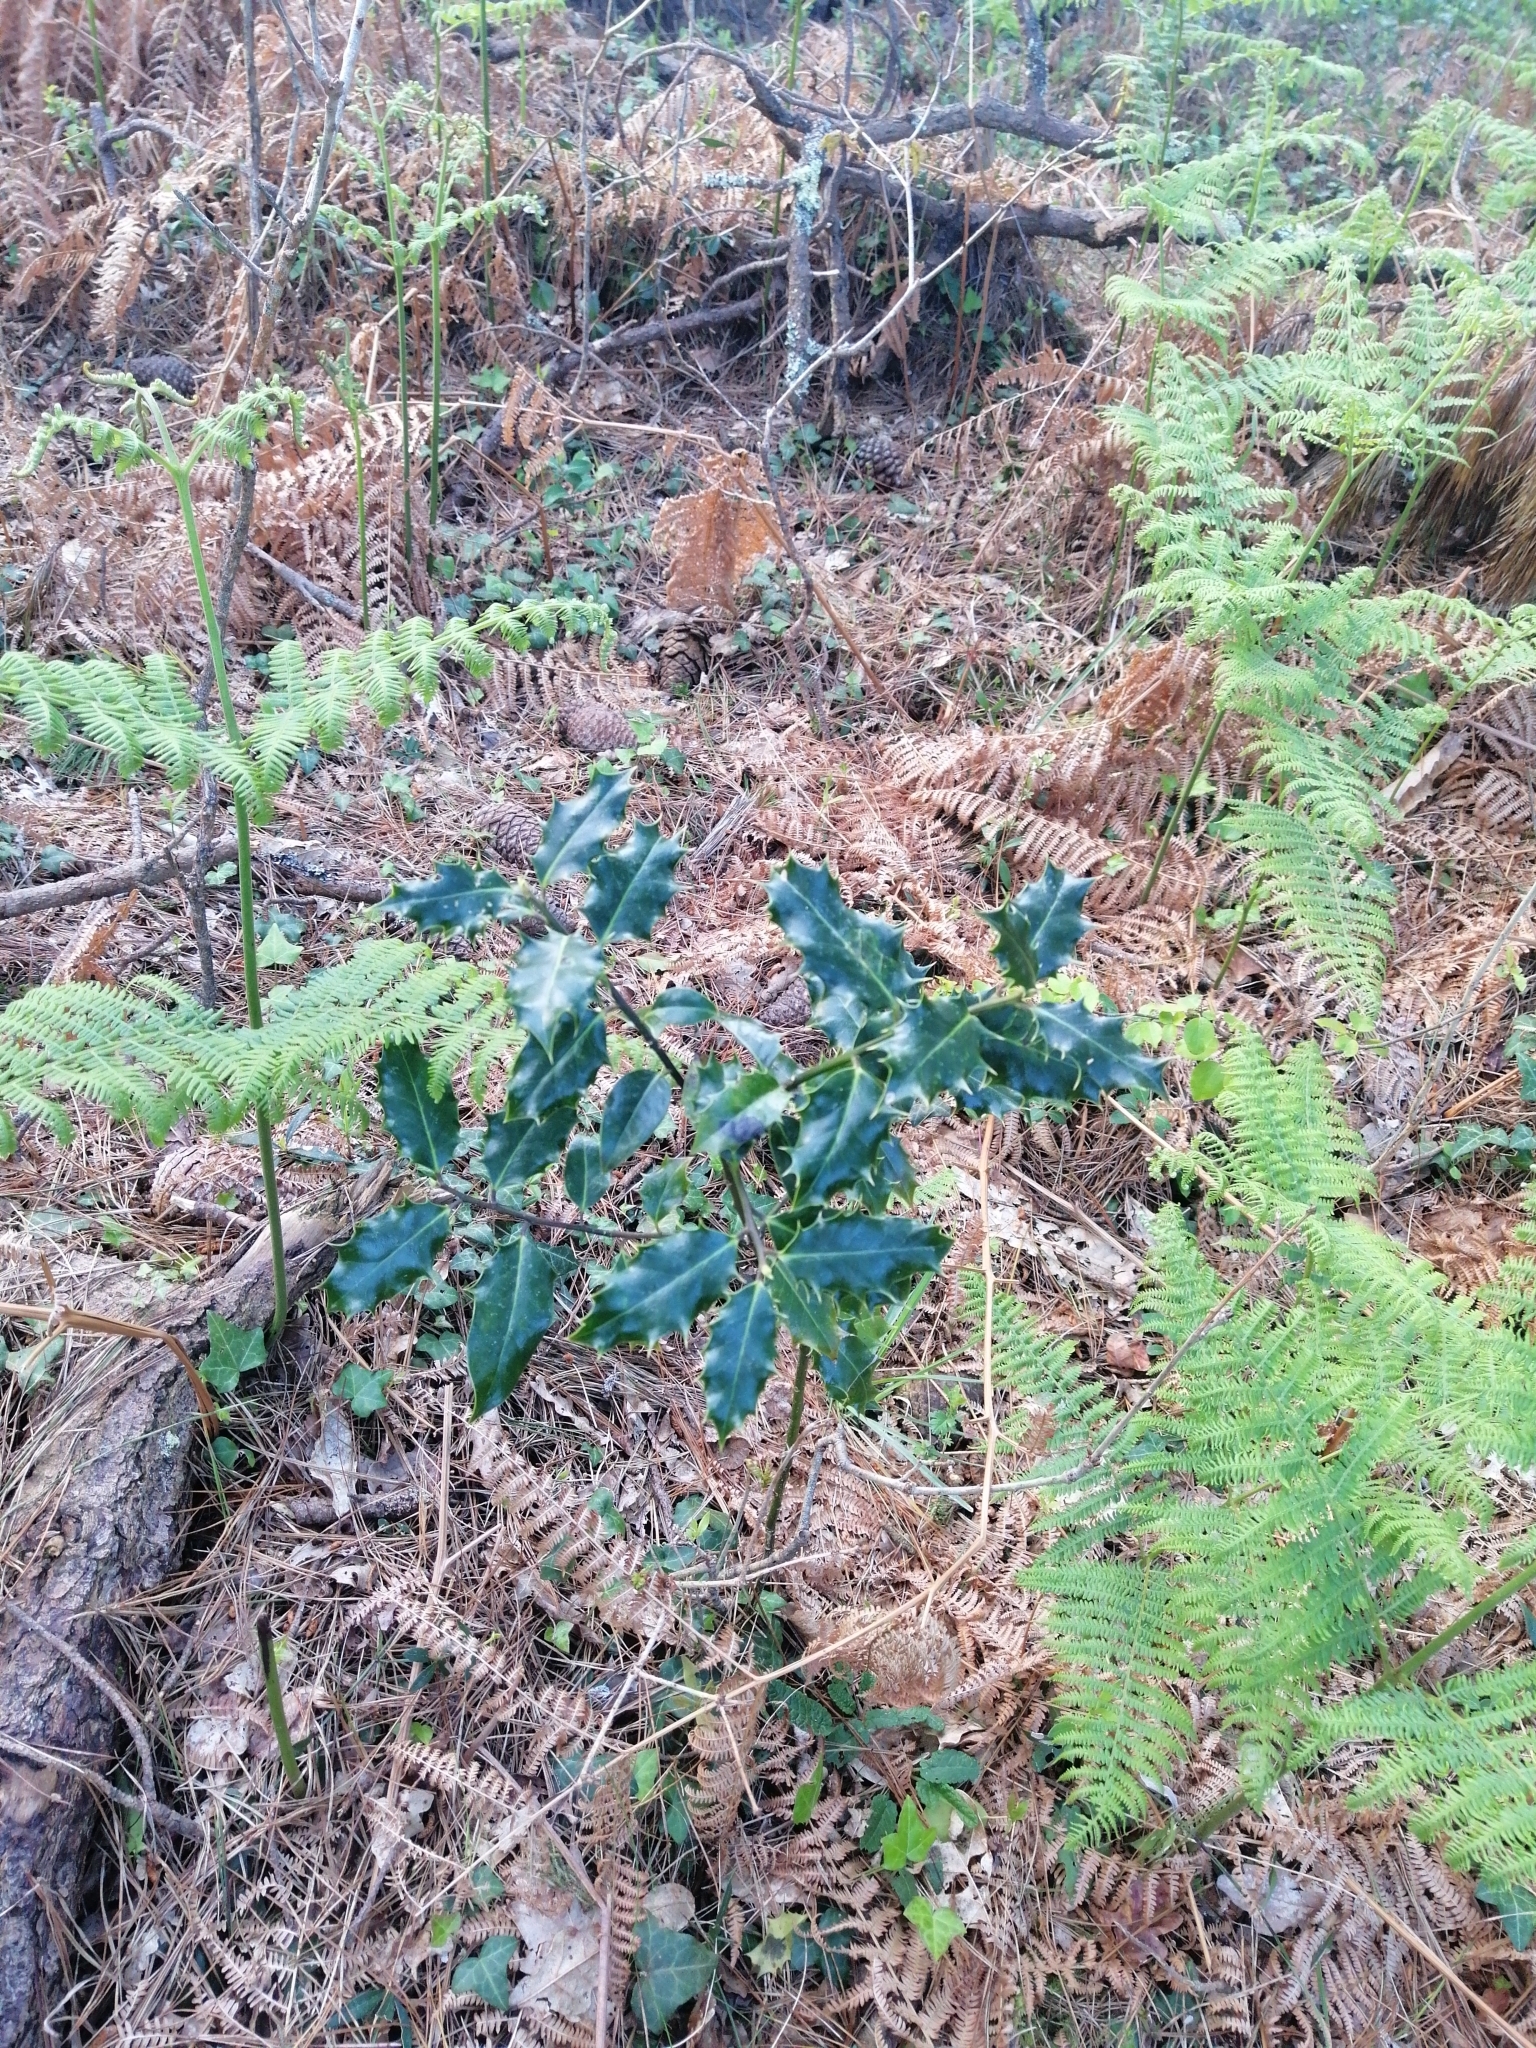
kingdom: Plantae
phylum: Tracheophyta
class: Magnoliopsida
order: Aquifoliales
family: Aquifoliaceae
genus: Ilex
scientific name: Ilex aquifolium
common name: English holly
